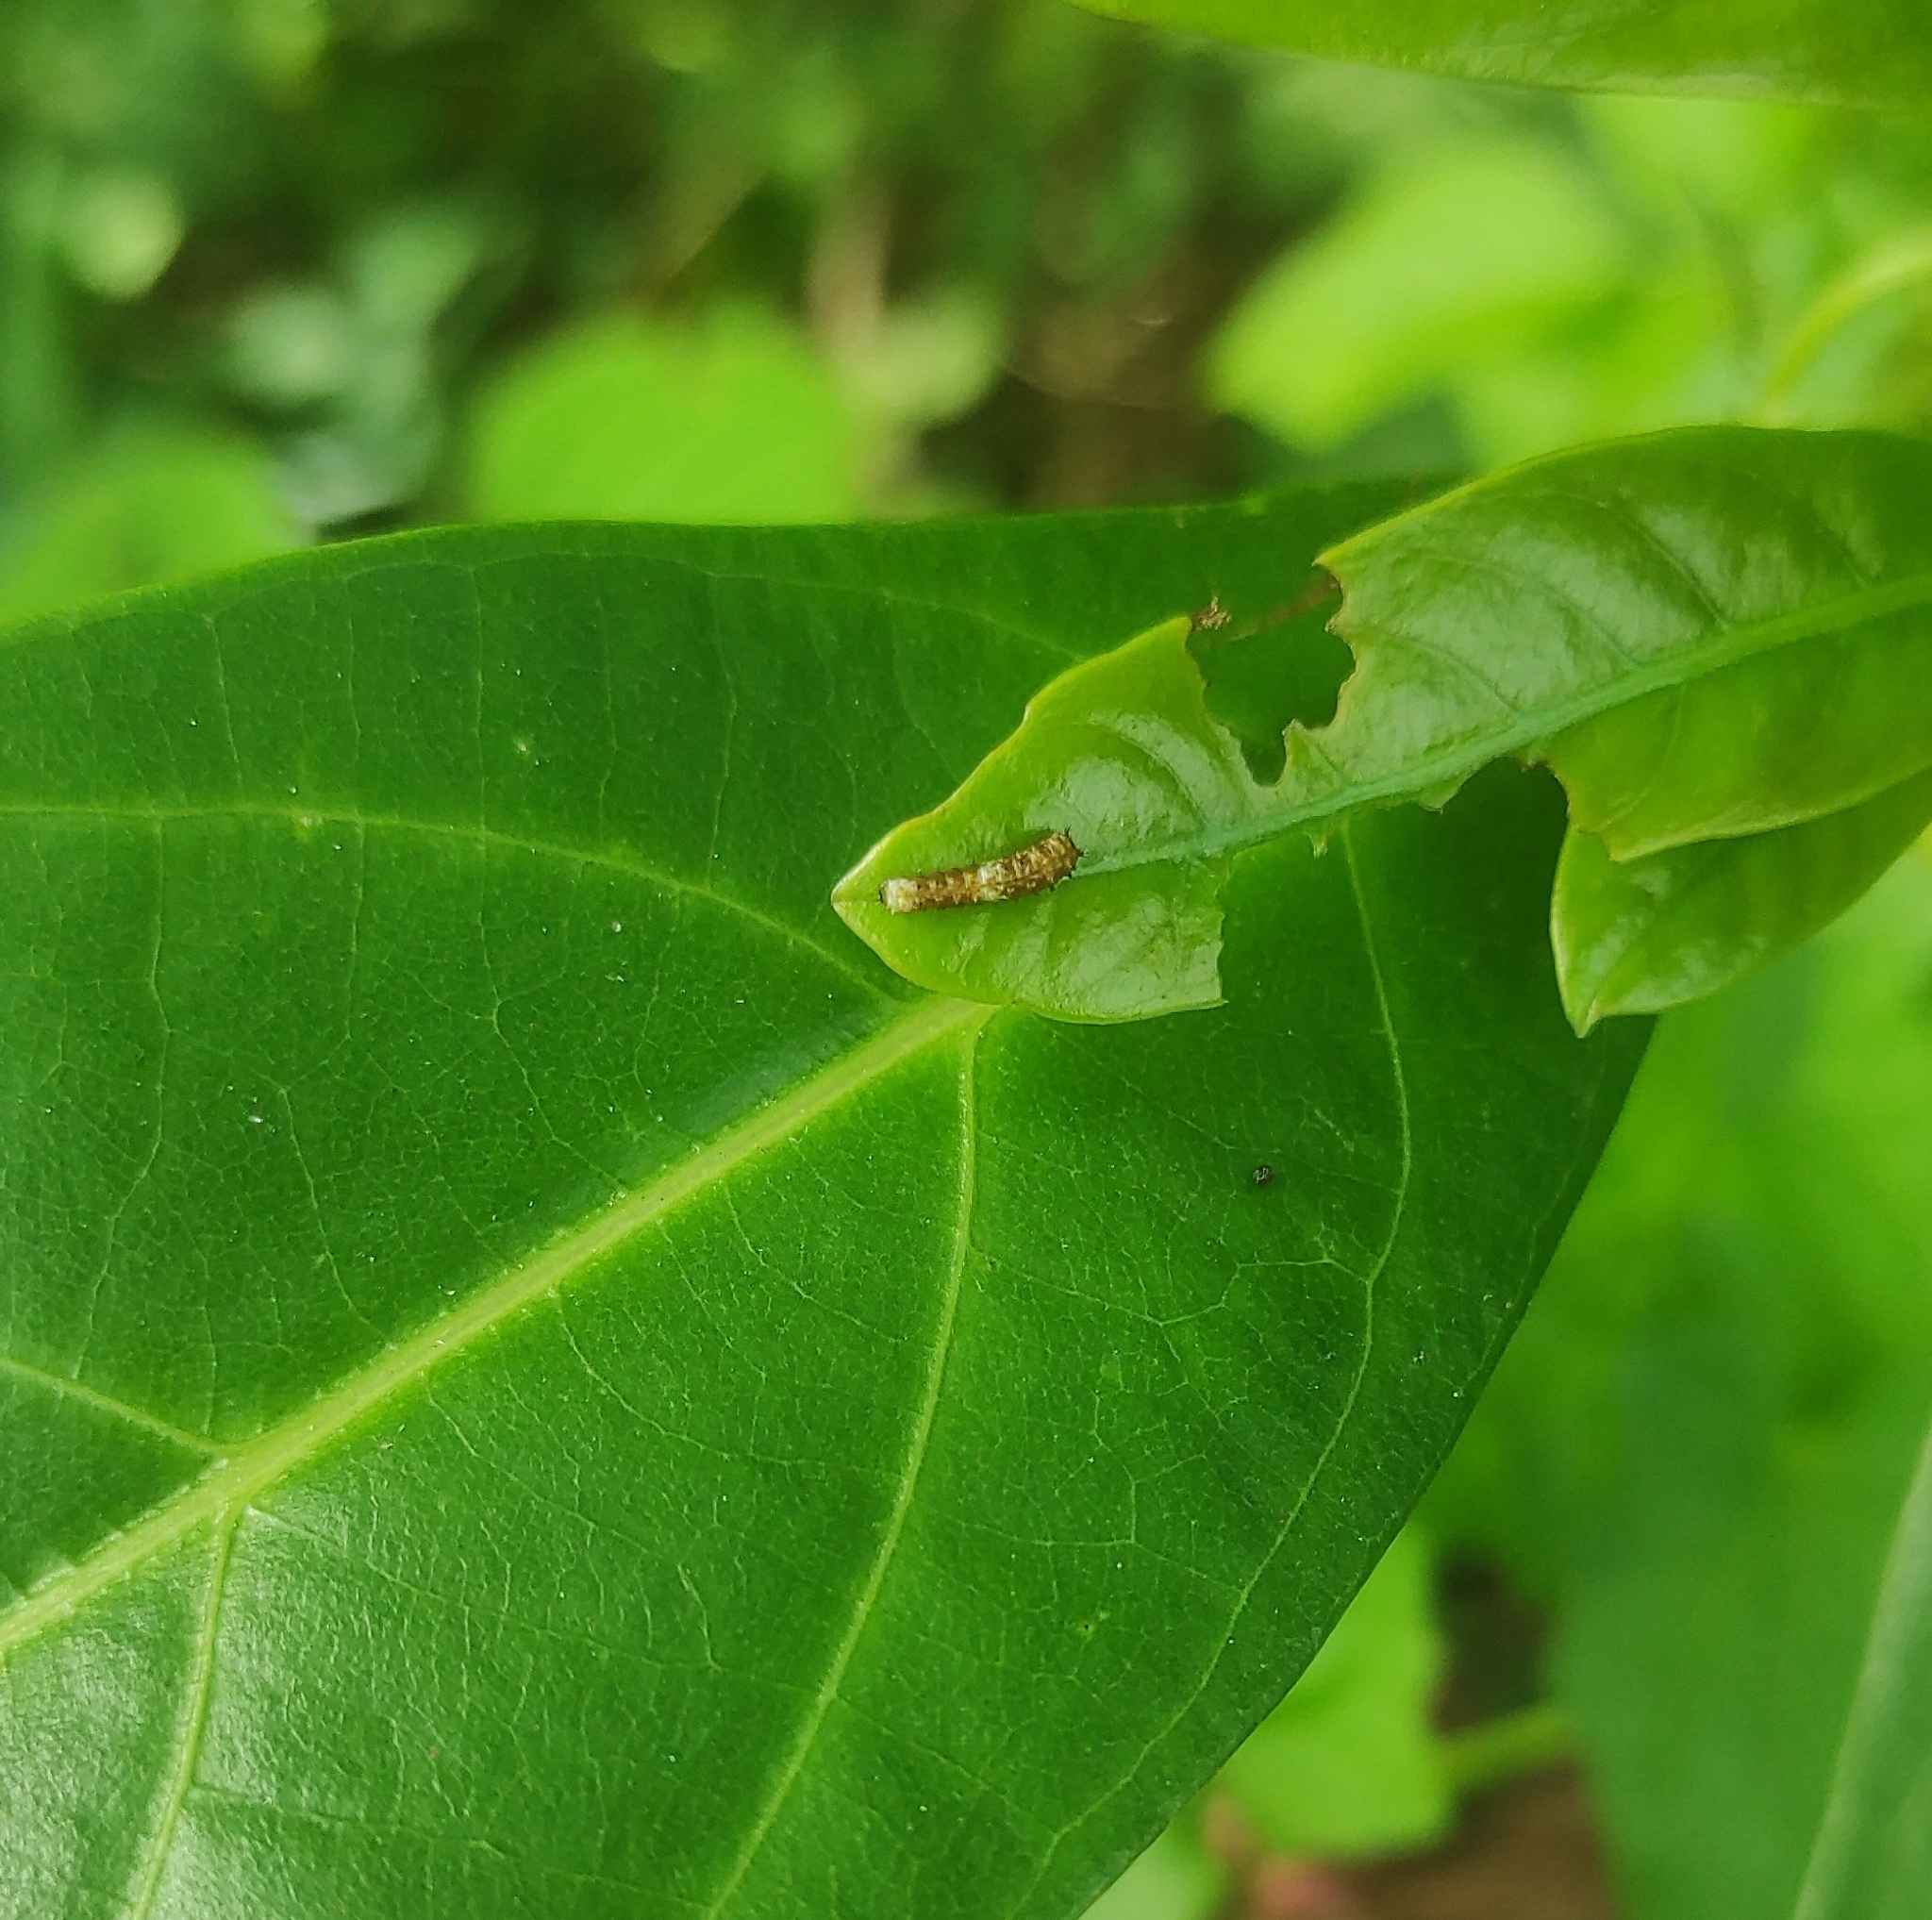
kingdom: Animalia
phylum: Arthropoda
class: Insecta
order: Lepidoptera
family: Papilionidae
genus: Chilasa
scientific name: Chilasa clytia
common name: Common mime
